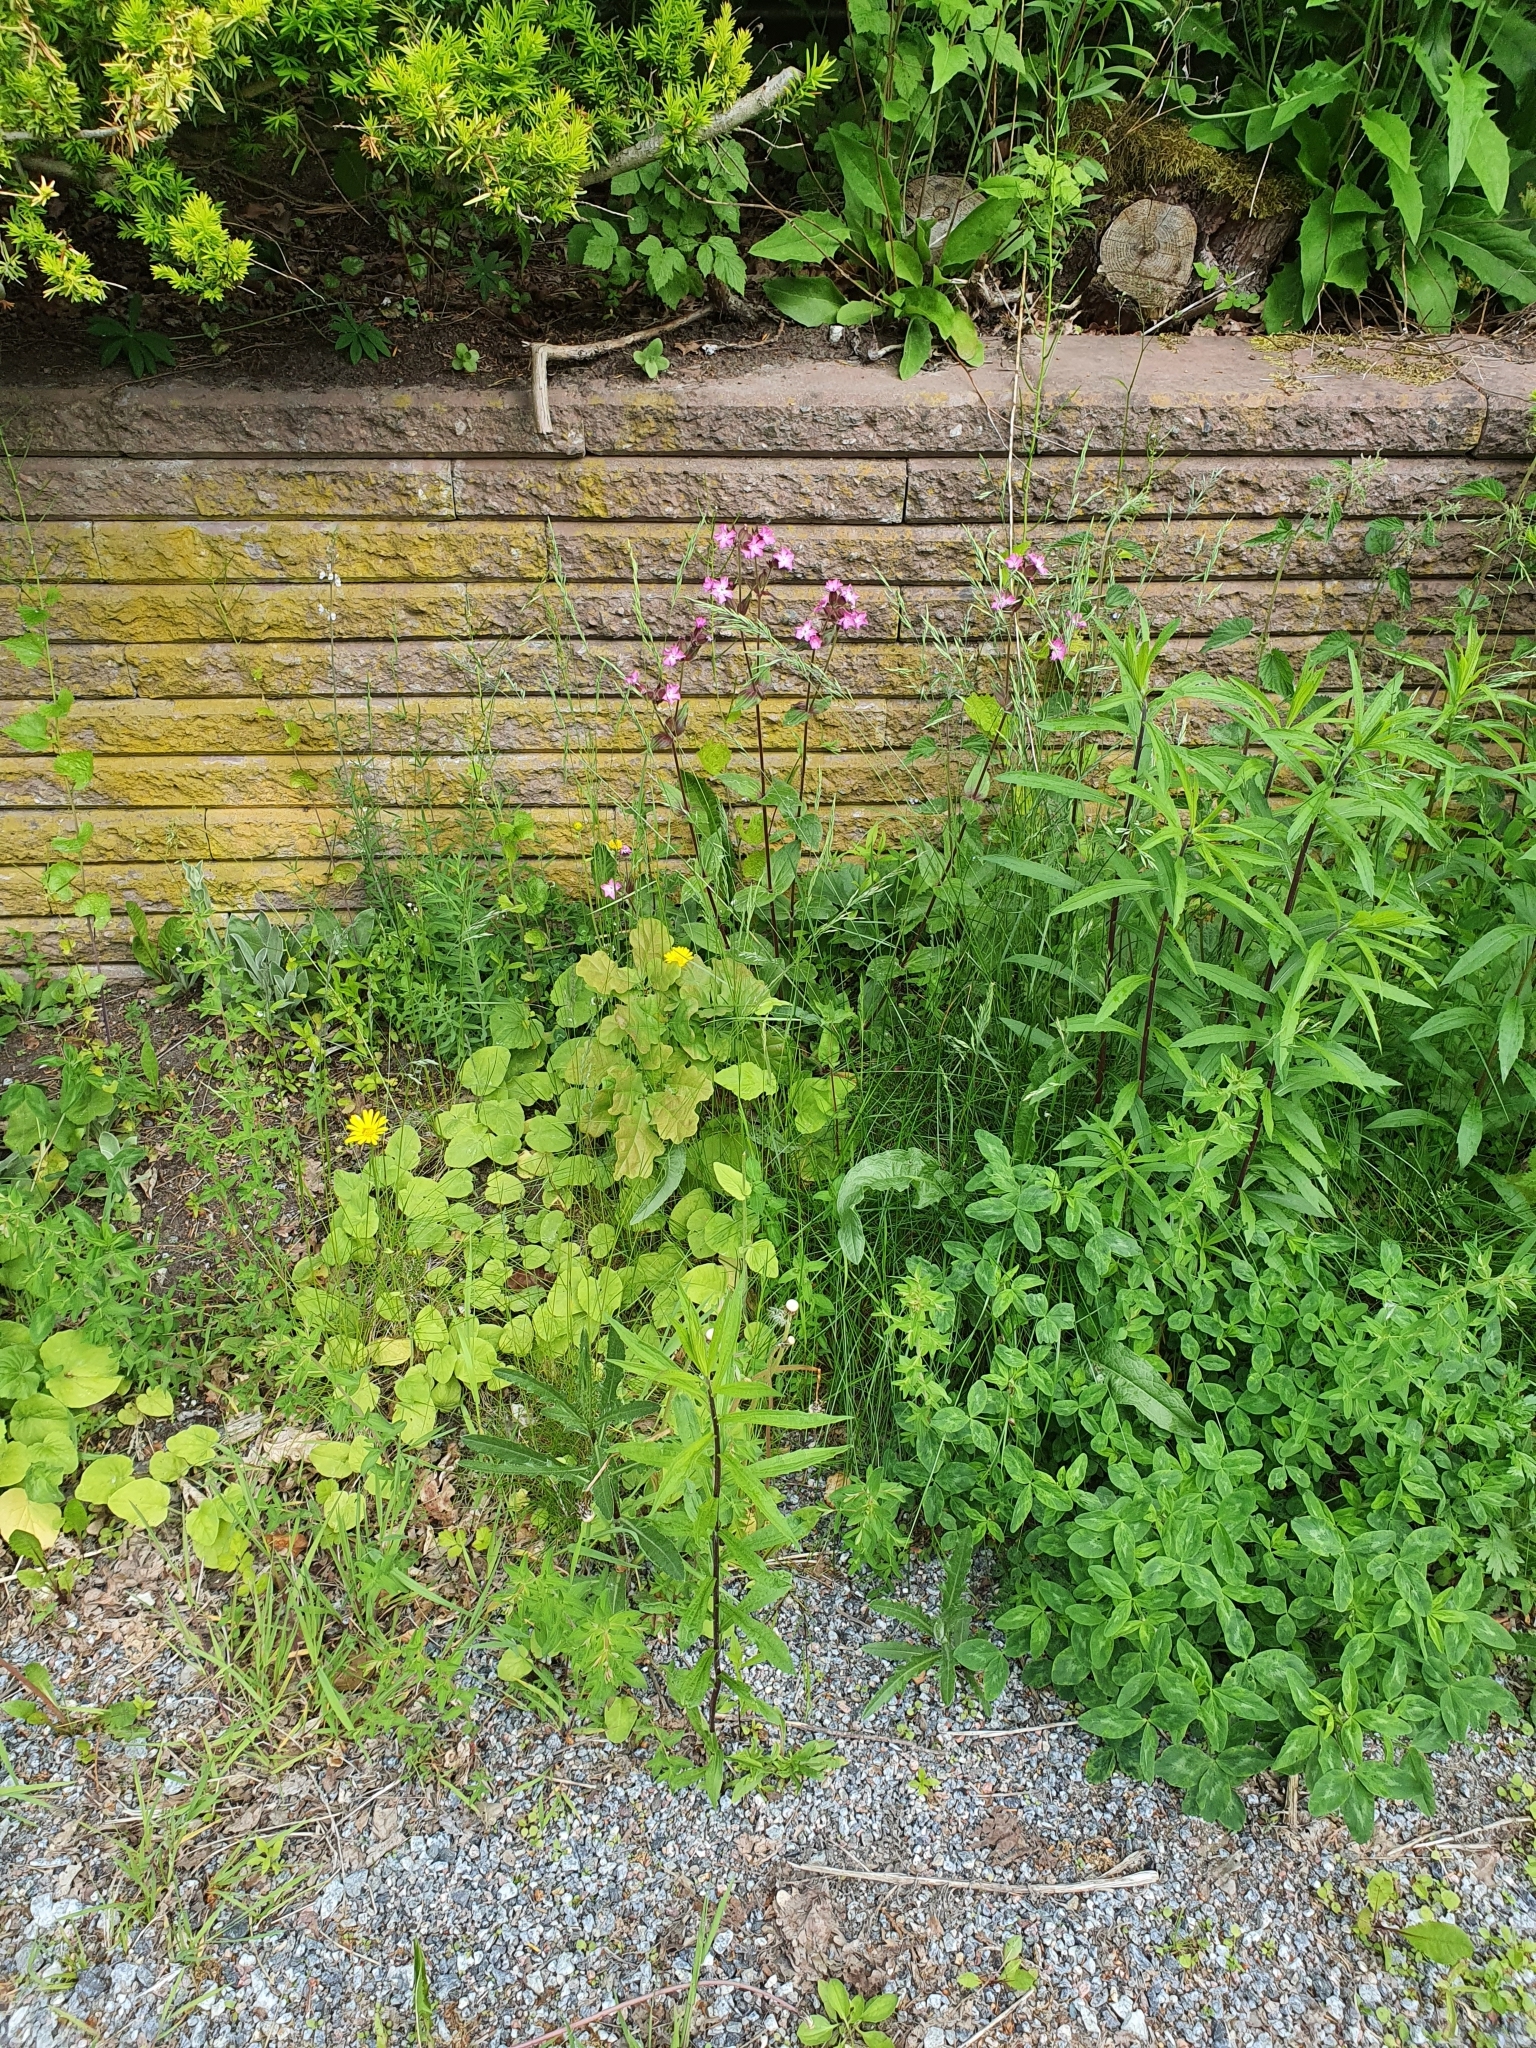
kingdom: Plantae
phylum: Tracheophyta
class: Magnoliopsida
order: Caryophyllales
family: Caryophyllaceae
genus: Silene
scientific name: Silene dioica
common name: Red campion
